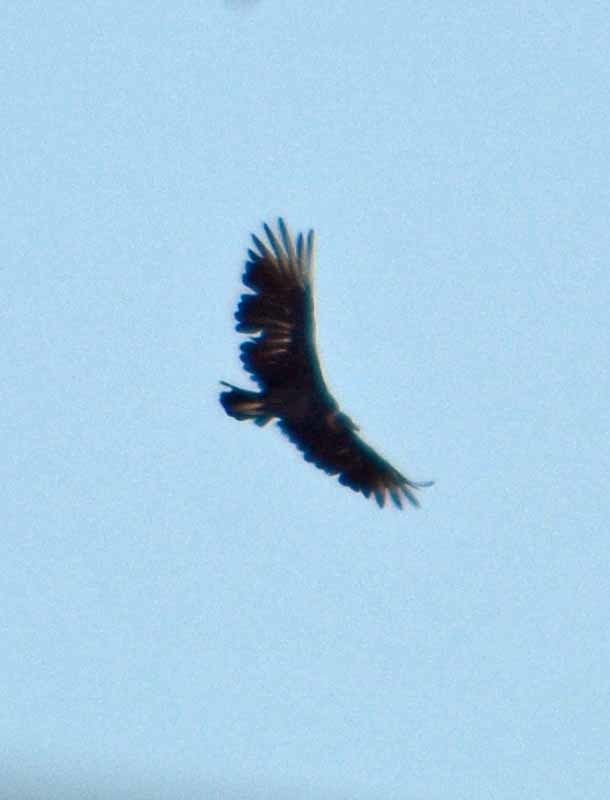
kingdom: Animalia
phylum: Chordata
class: Aves
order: Accipitriformes
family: Cathartidae
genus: Coragyps
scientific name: Coragyps atratus
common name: Black vulture
